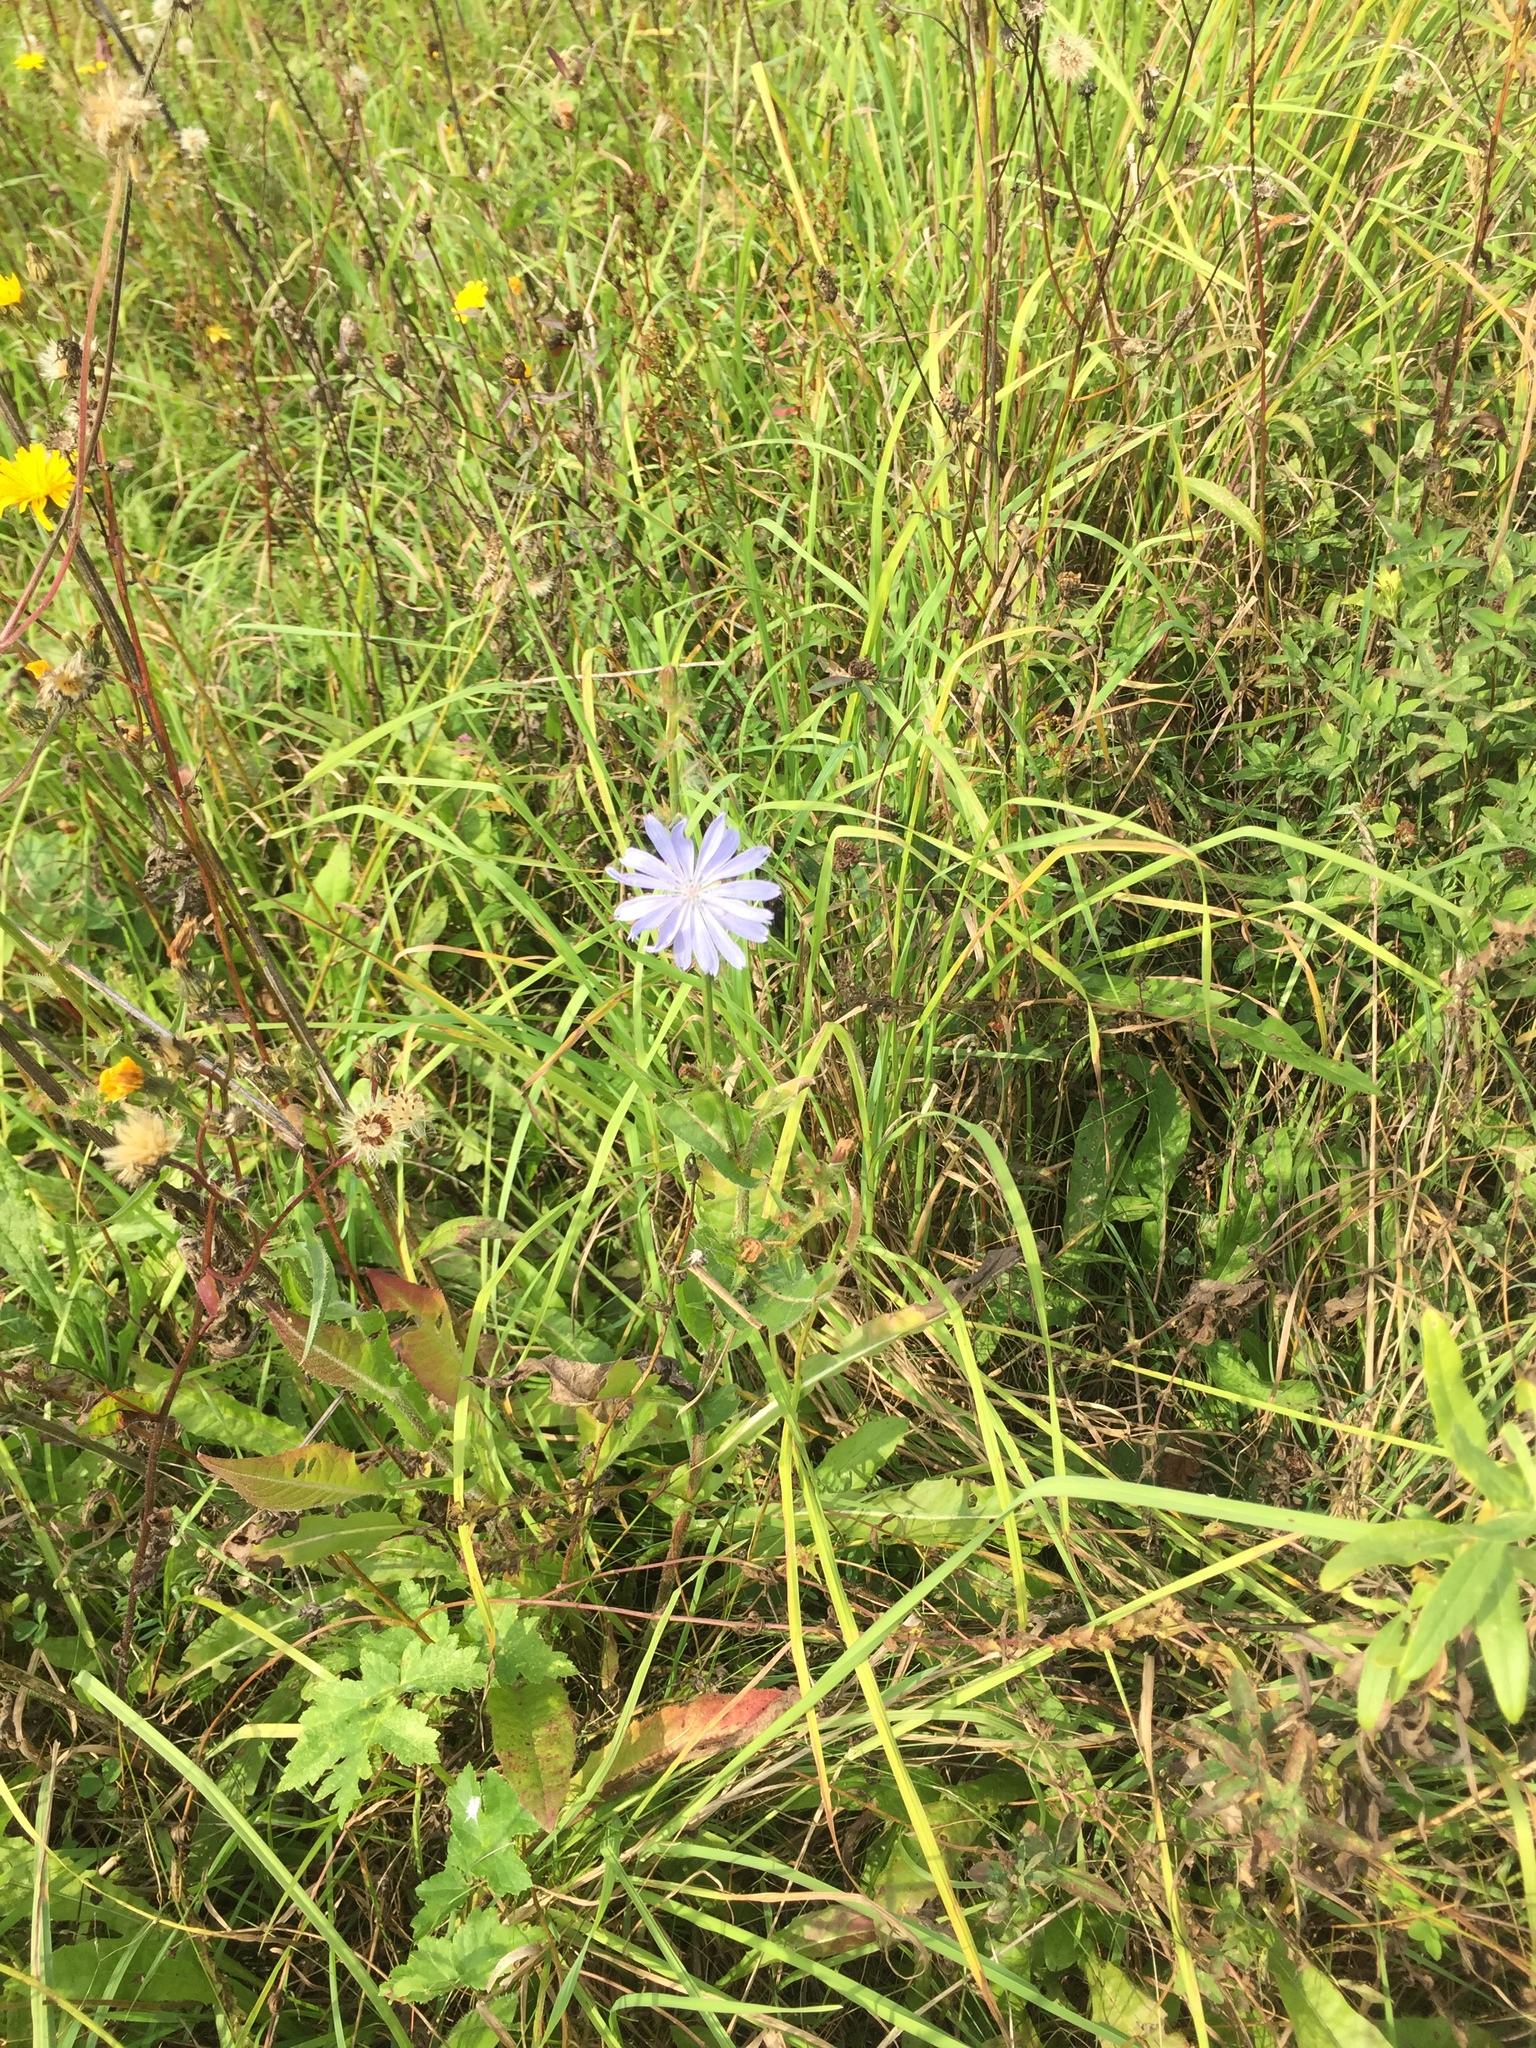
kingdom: Plantae
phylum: Tracheophyta
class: Magnoliopsida
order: Asterales
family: Asteraceae
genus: Cichorium
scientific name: Cichorium intybus
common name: Chicory
